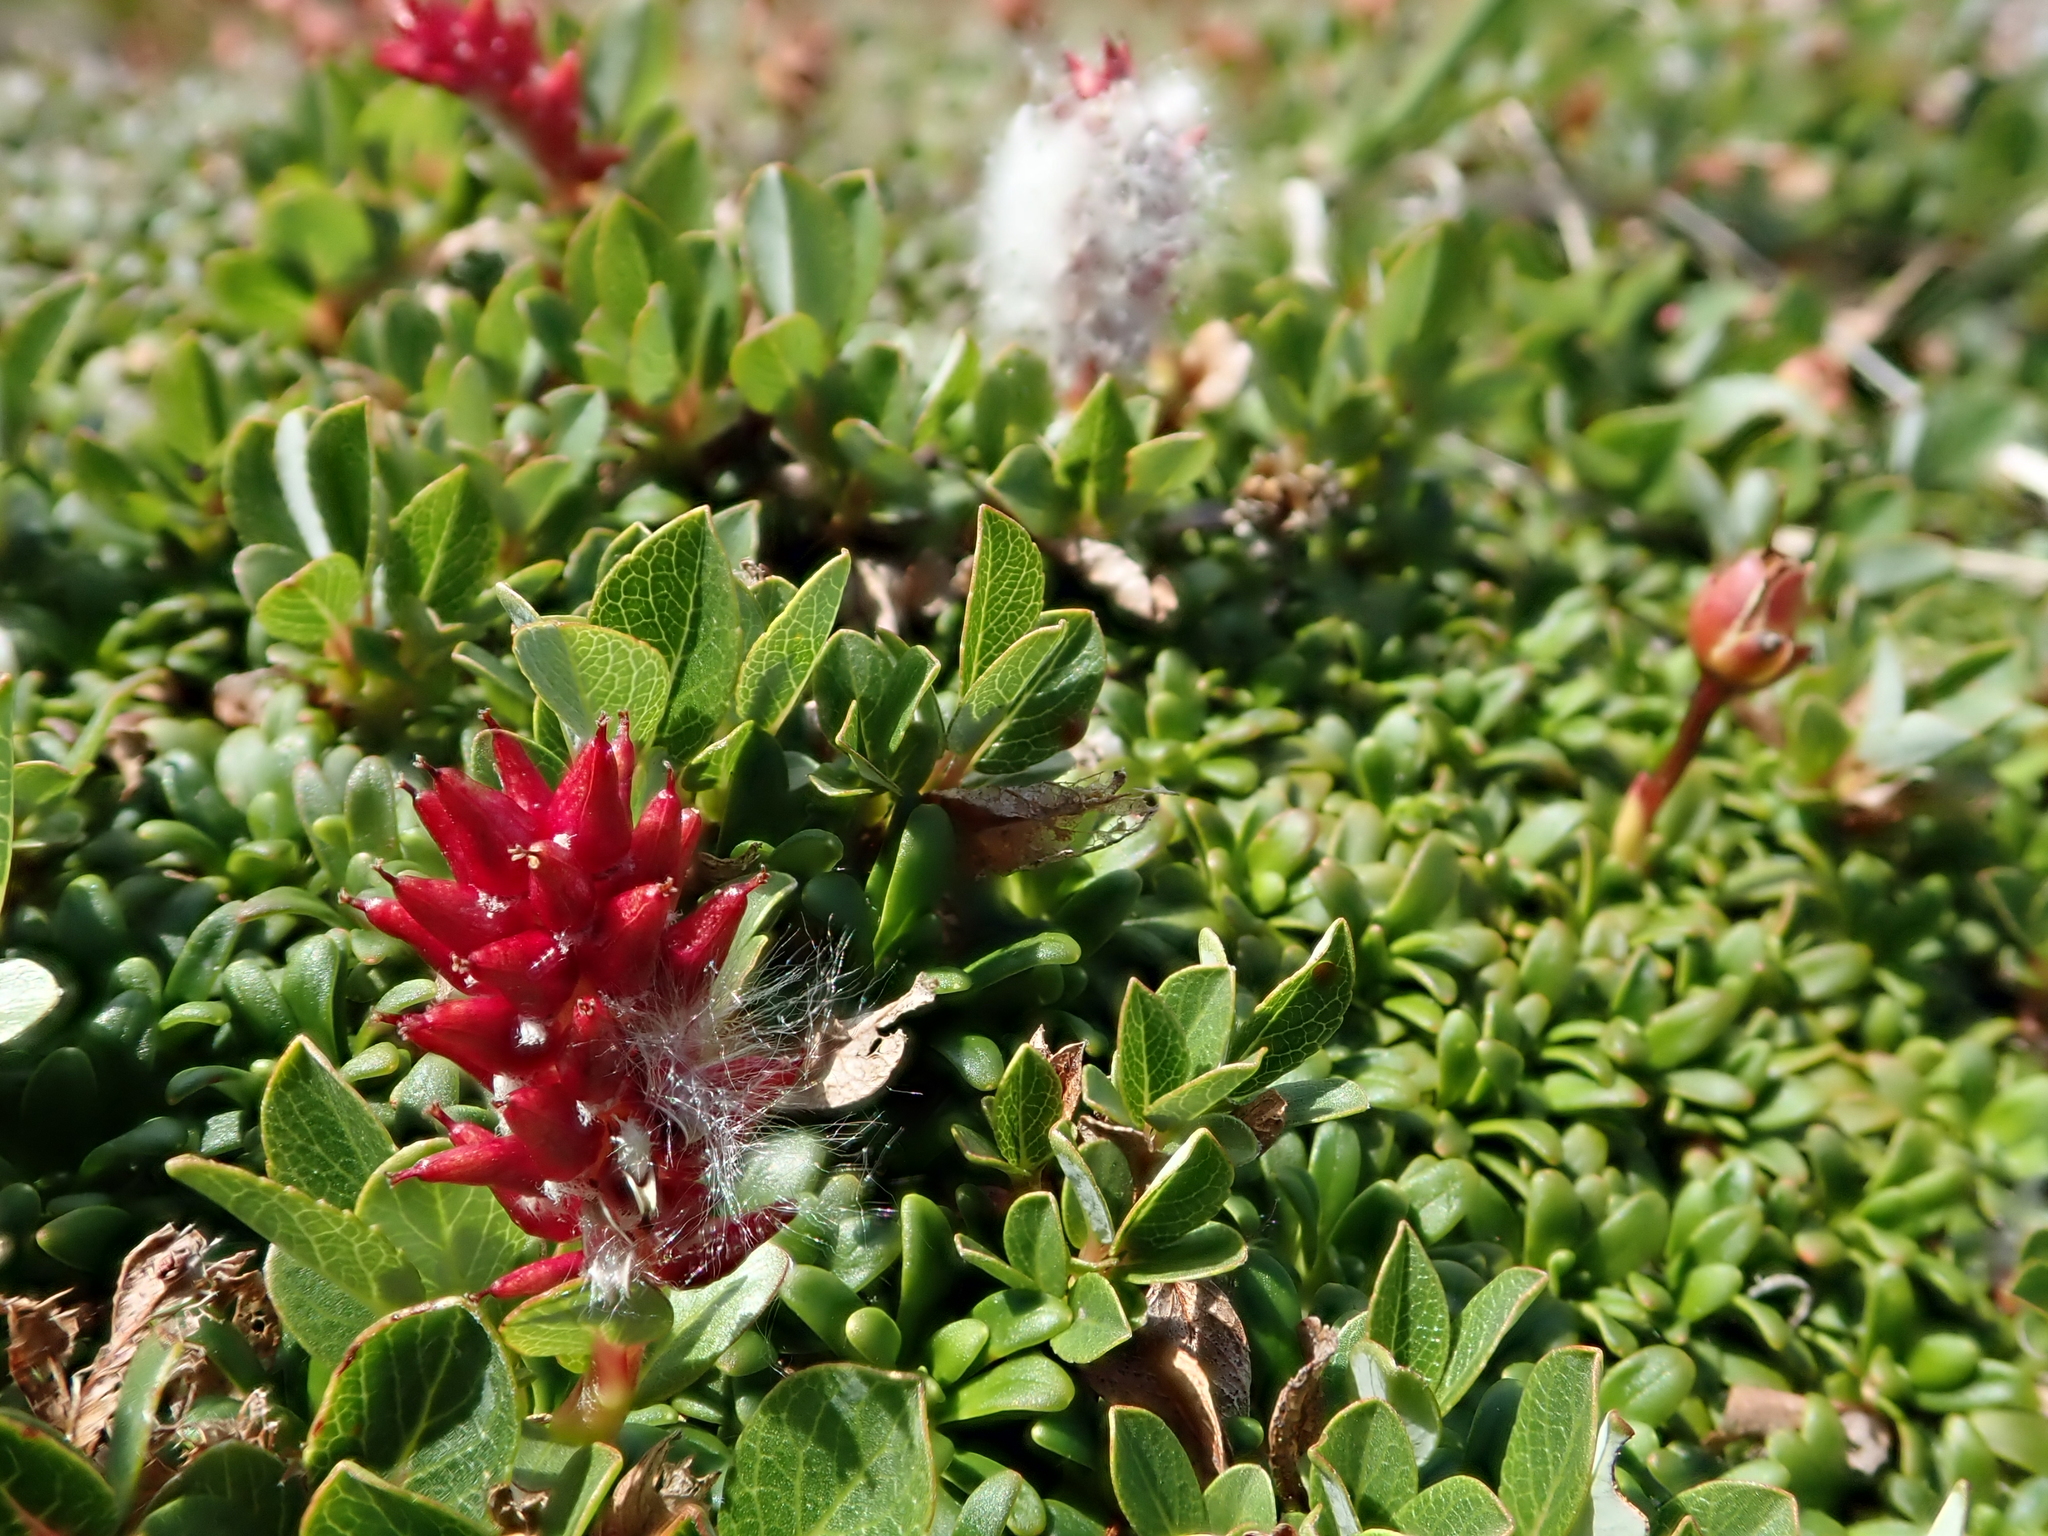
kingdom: Plantae
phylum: Tracheophyta
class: Magnoliopsida
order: Malpighiales
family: Salicaceae
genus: Salix
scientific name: Salix uva-ursi
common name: Bearberry willow
